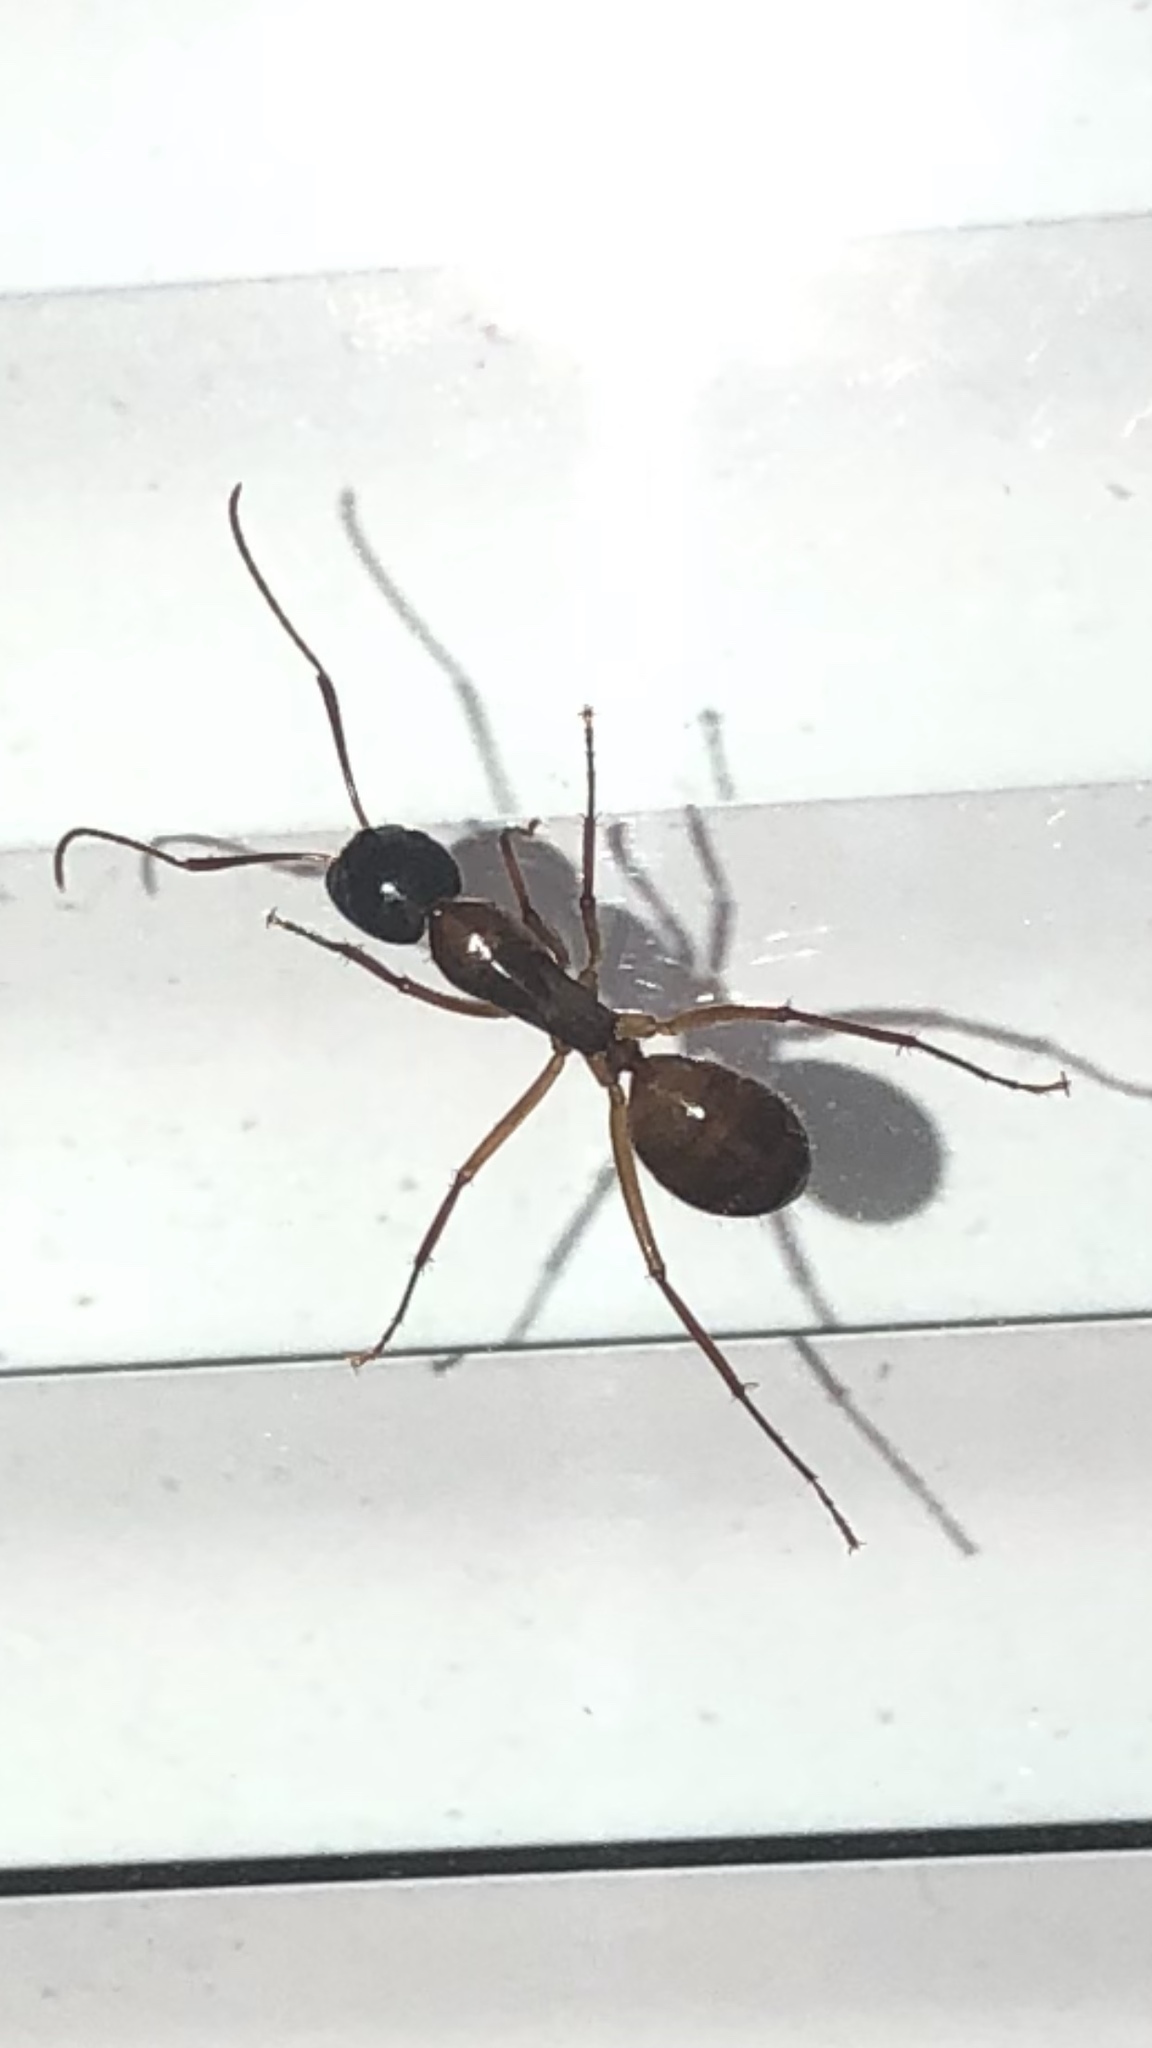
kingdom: Animalia
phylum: Arthropoda
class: Insecta
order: Hymenoptera
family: Formicidae
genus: Camponotus
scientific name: Camponotus americanus
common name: American carpenter ant
